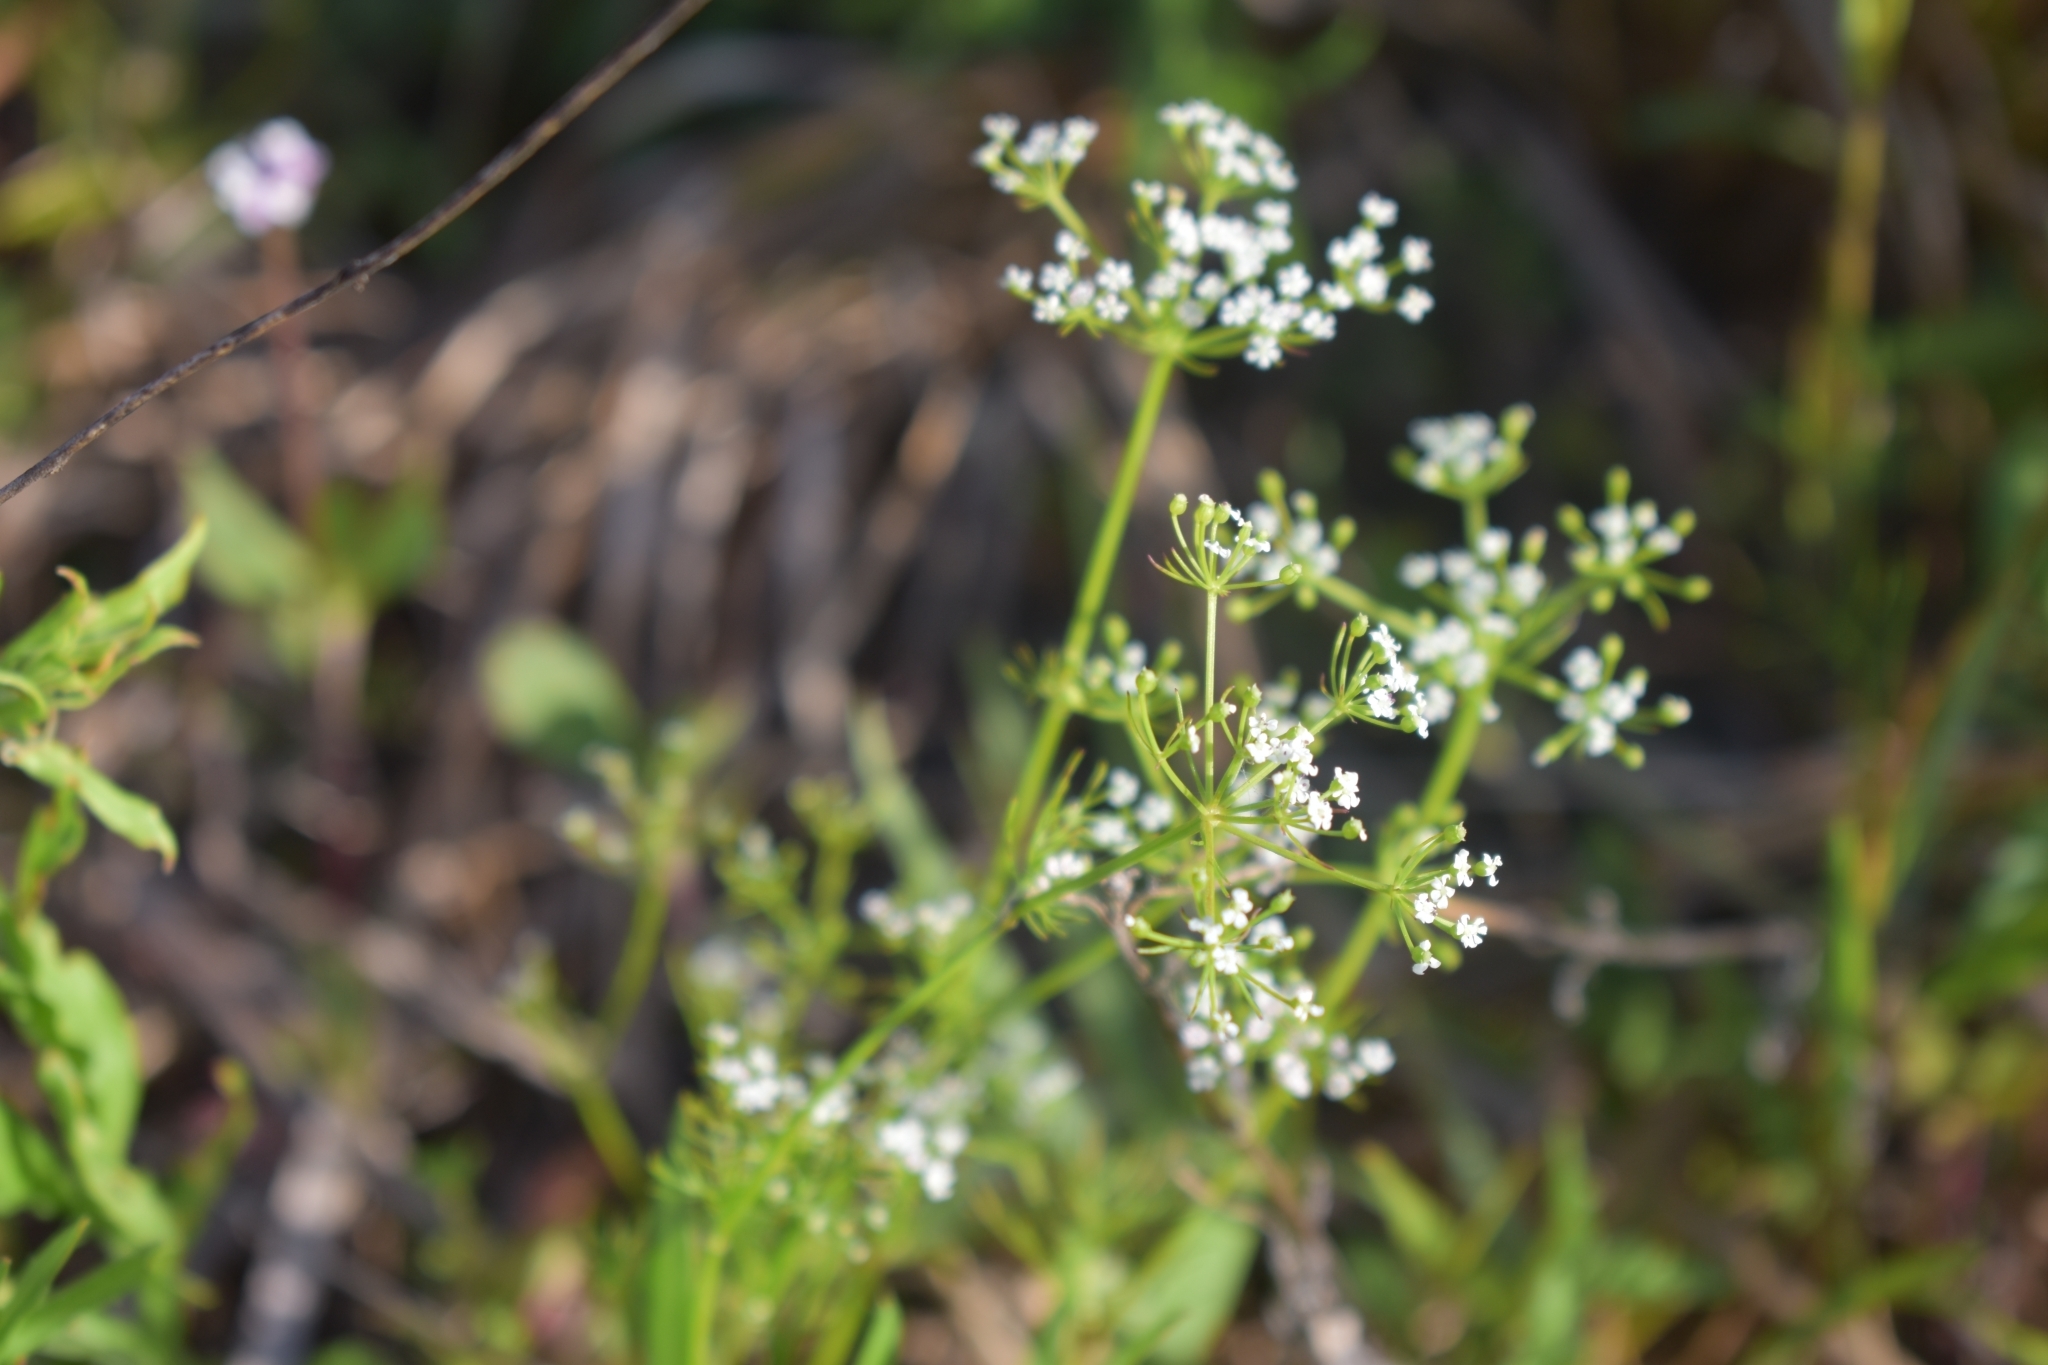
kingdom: Plantae
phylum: Tracheophyta
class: Magnoliopsida
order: Apiales
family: Apiaceae
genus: Ptilimnium
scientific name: Ptilimnium capillaceum
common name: Herbwilliam
